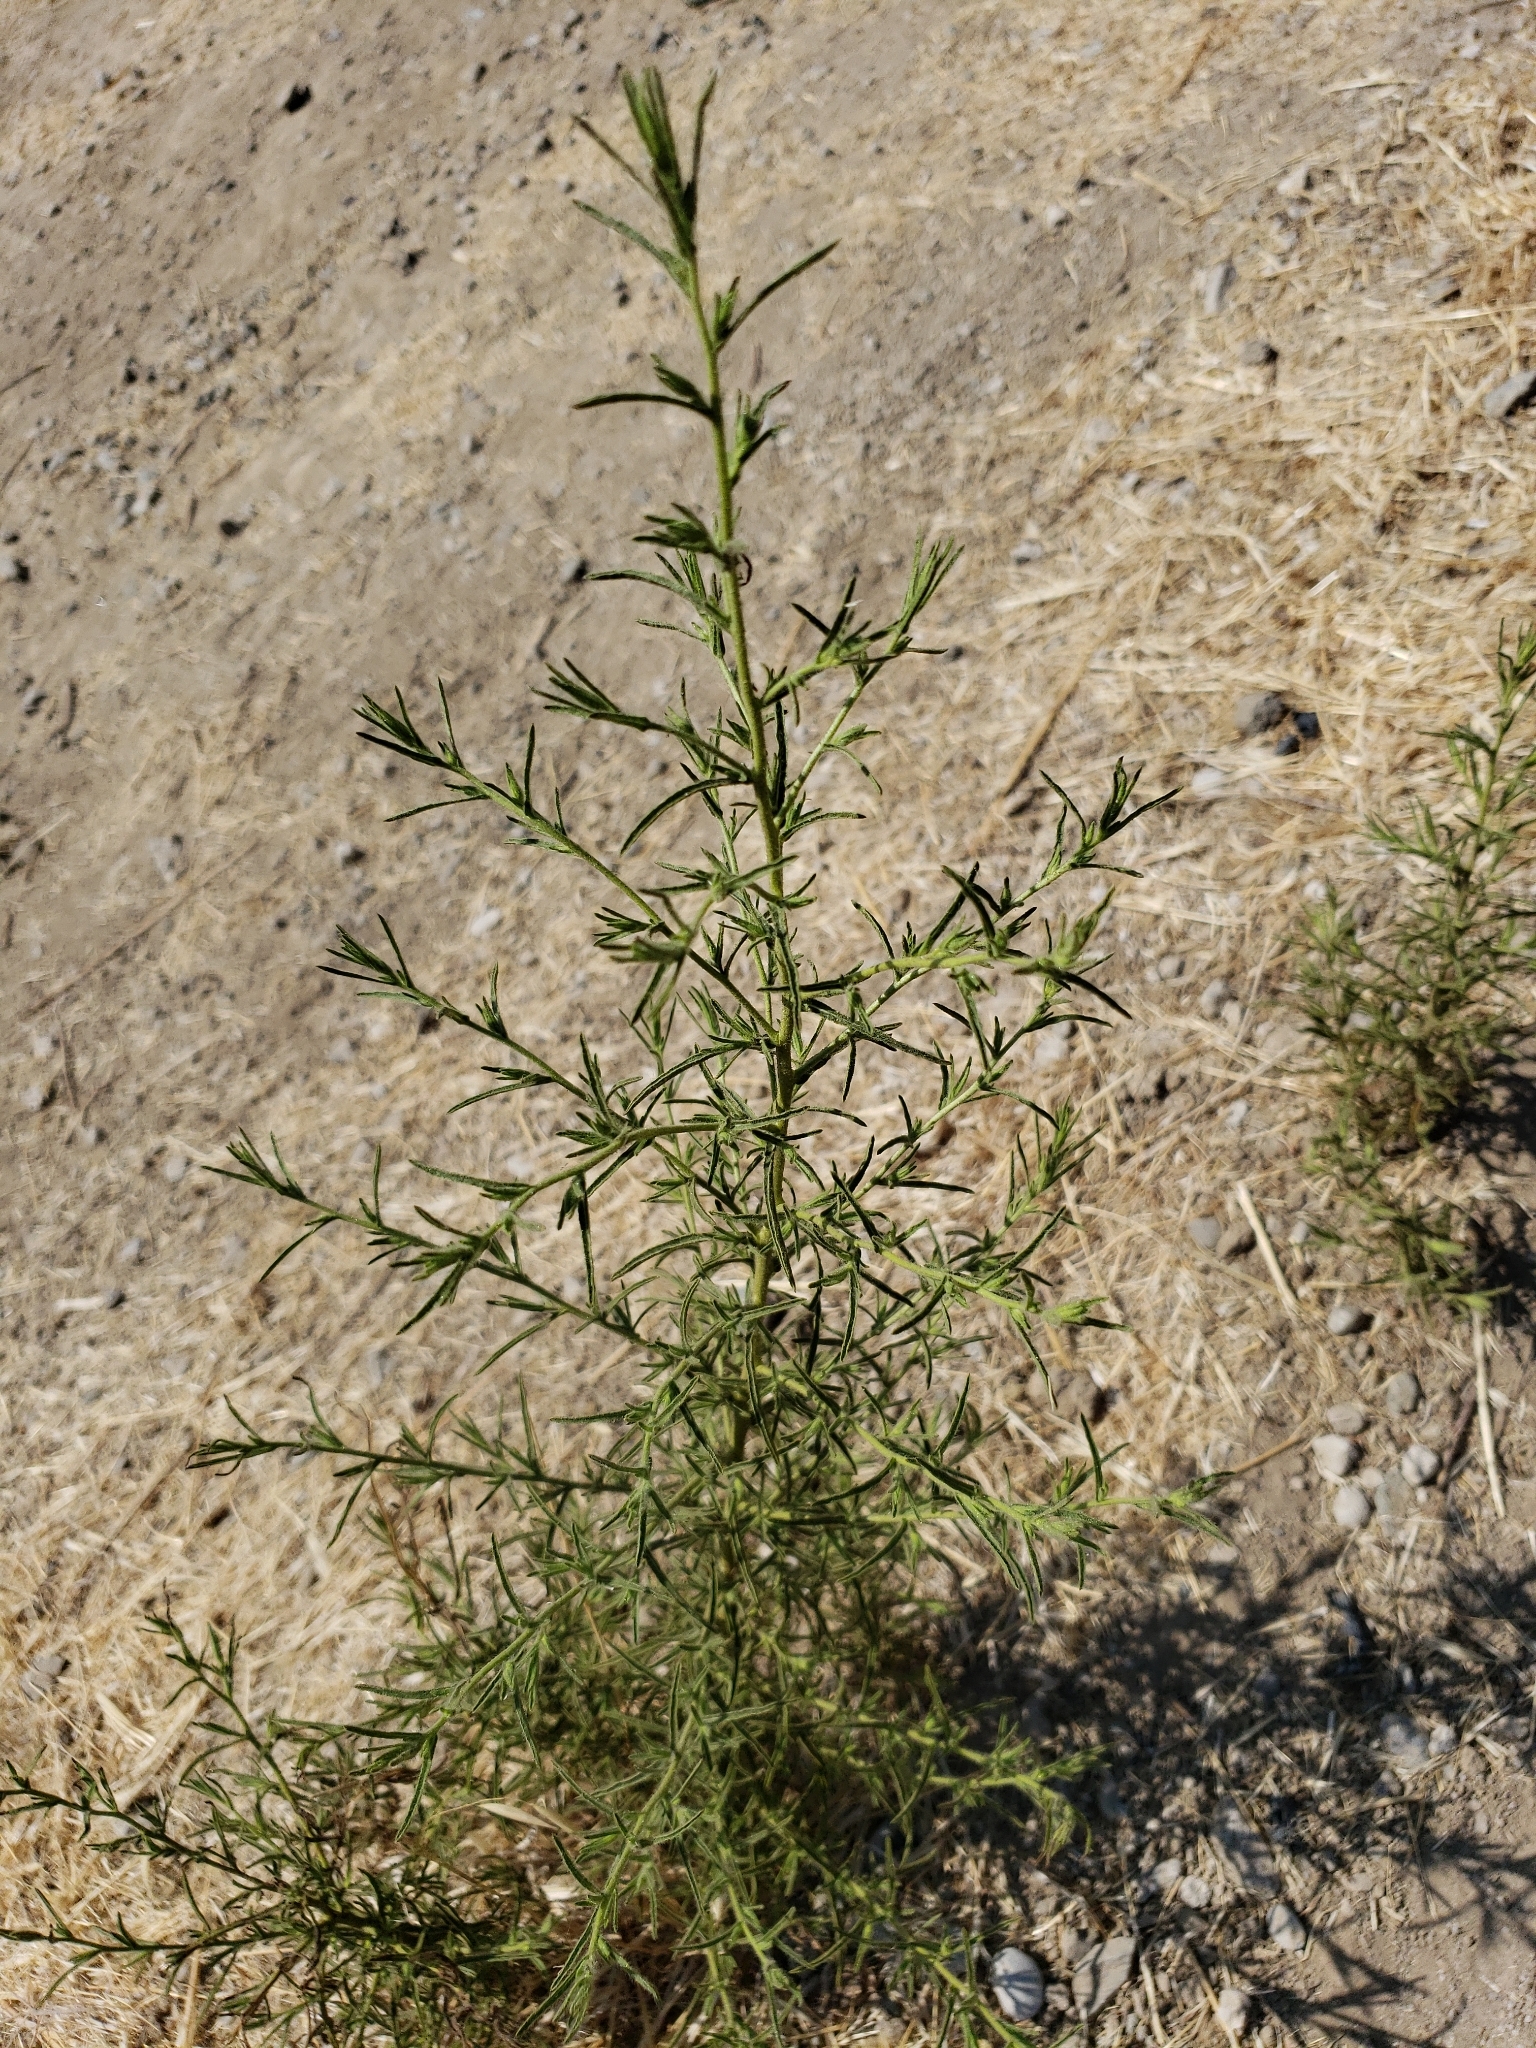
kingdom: Plantae
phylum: Tracheophyta
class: Magnoliopsida
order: Asterales
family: Asteraceae
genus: Dittrichia
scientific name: Dittrichia graveolens
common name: Stinking fleabane
